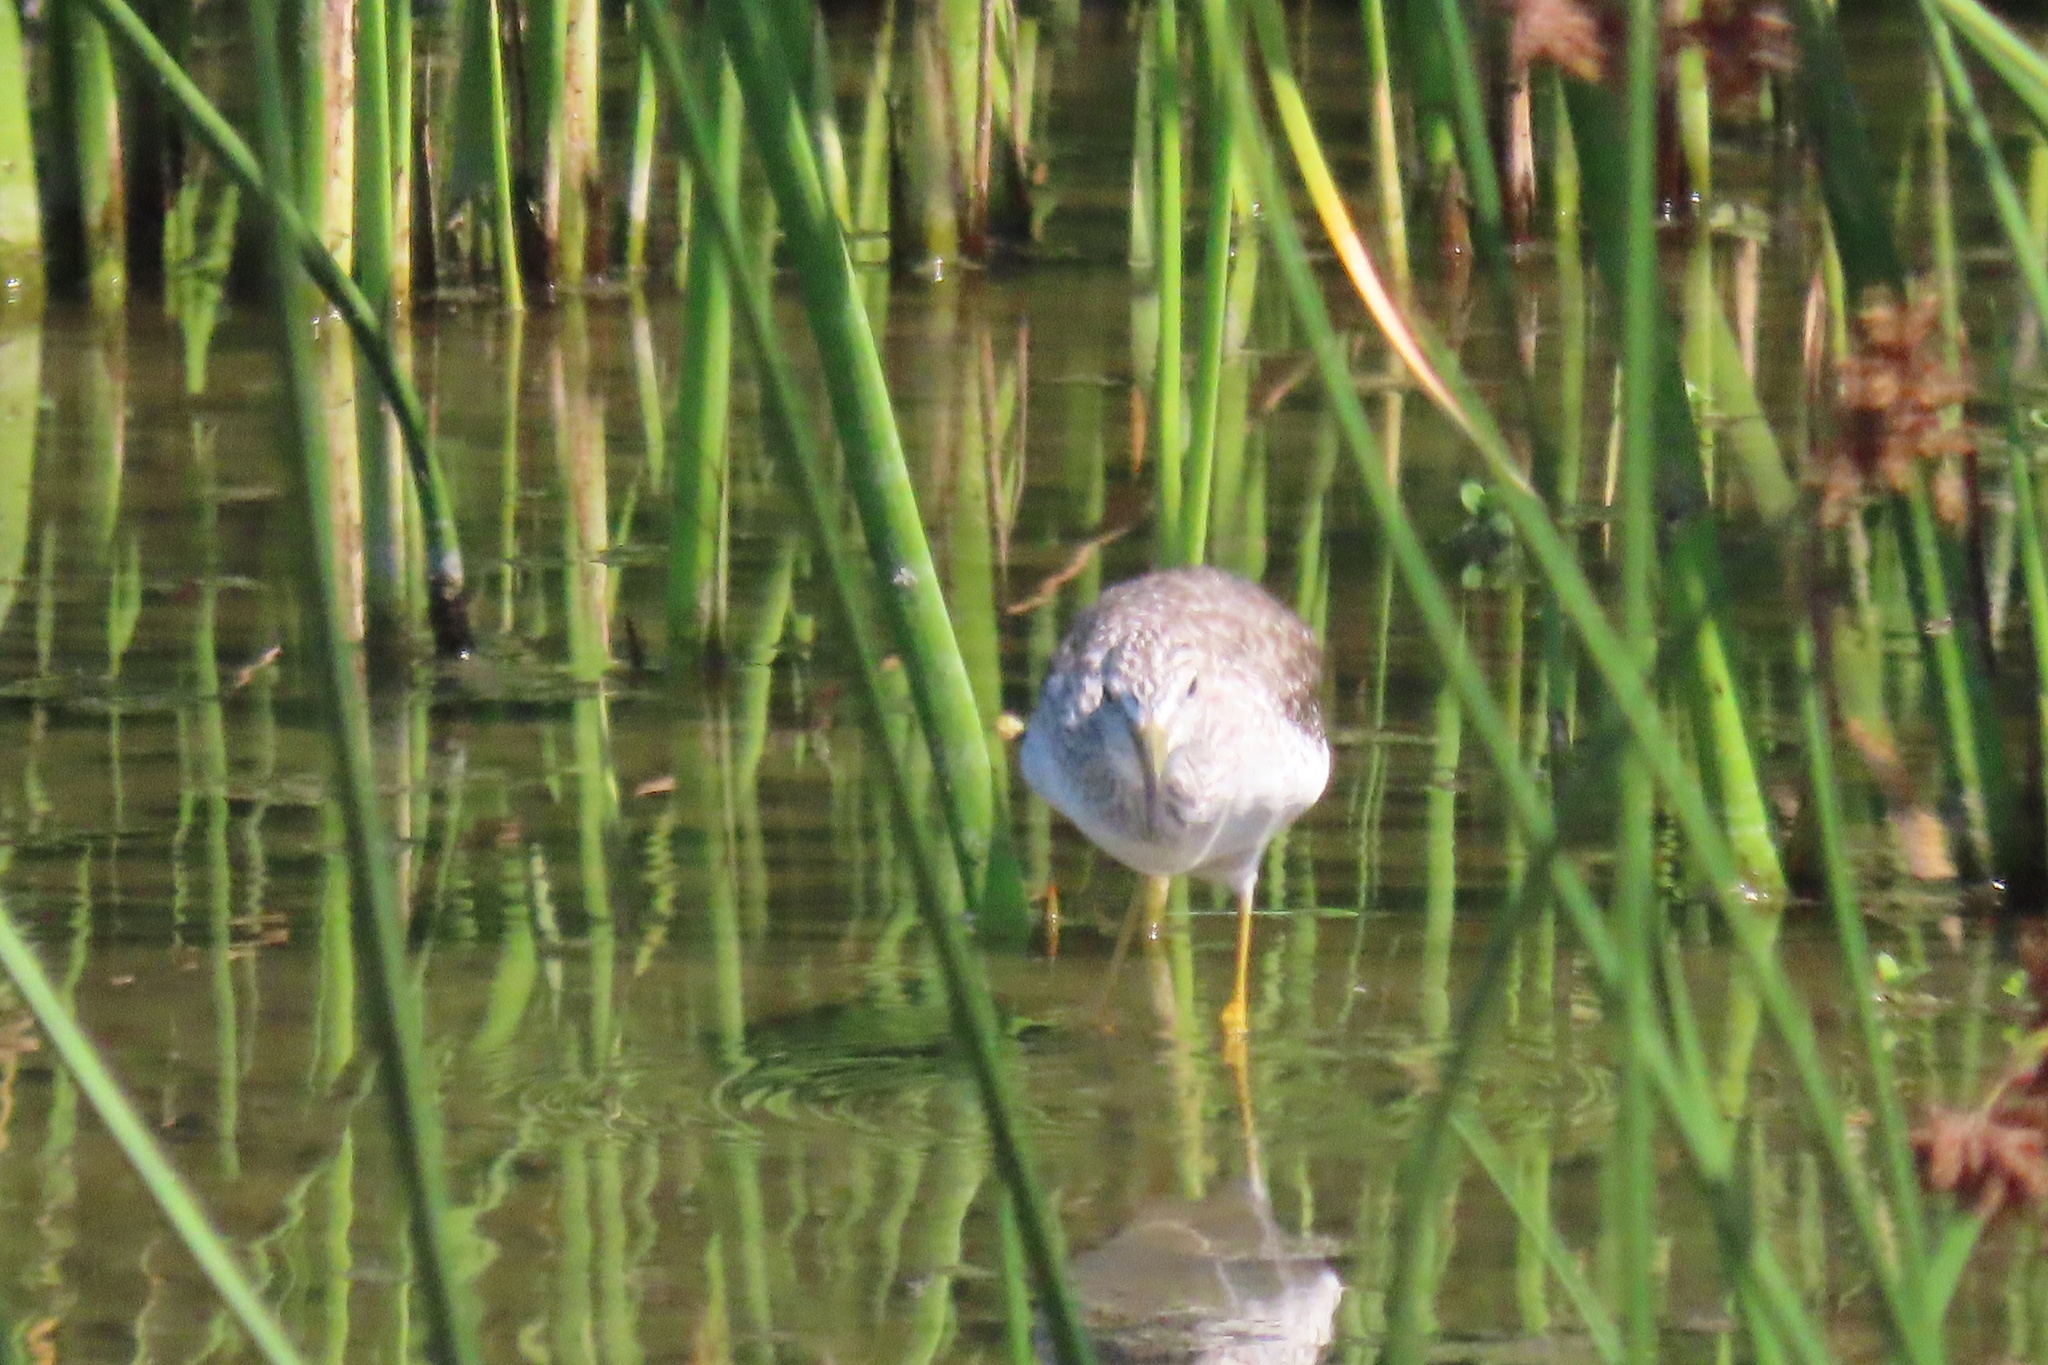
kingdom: Animalia
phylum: Chordata
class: Aves
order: Charadriiformes
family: Scolopacidae
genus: Tringa
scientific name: Tringa melanoleuca
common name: Greater yellowlegs
